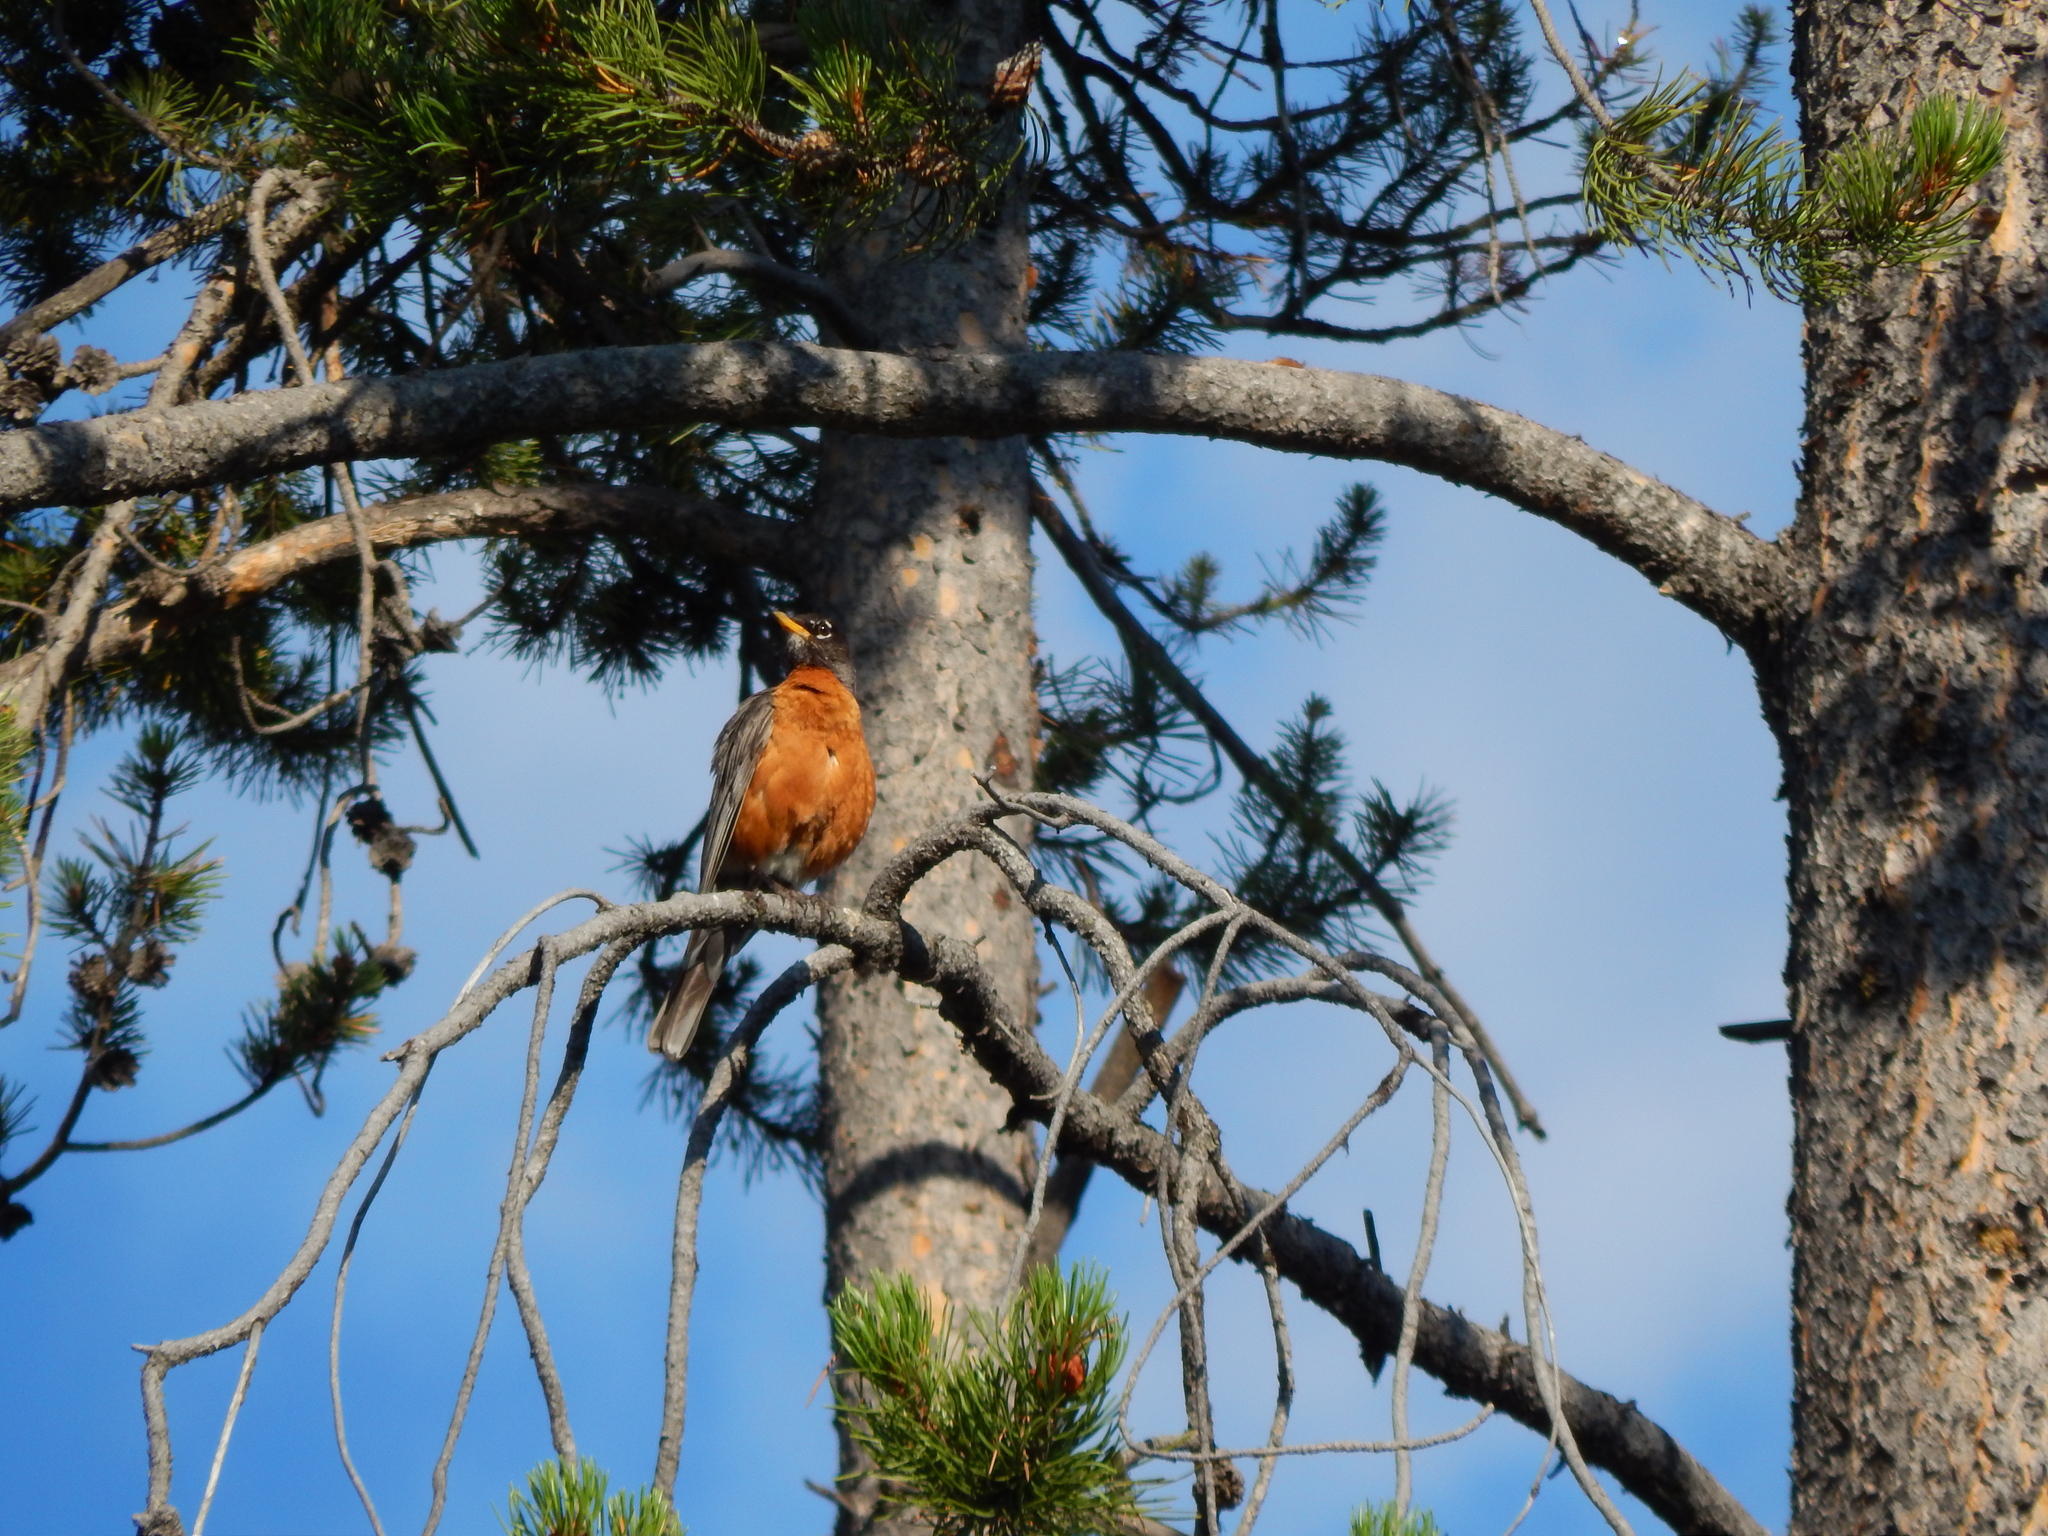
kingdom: Animalia
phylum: Chordata
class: Aves
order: Passeriformes
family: Turdidae
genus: Turdus
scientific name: Turdus migratorius
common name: American robin
